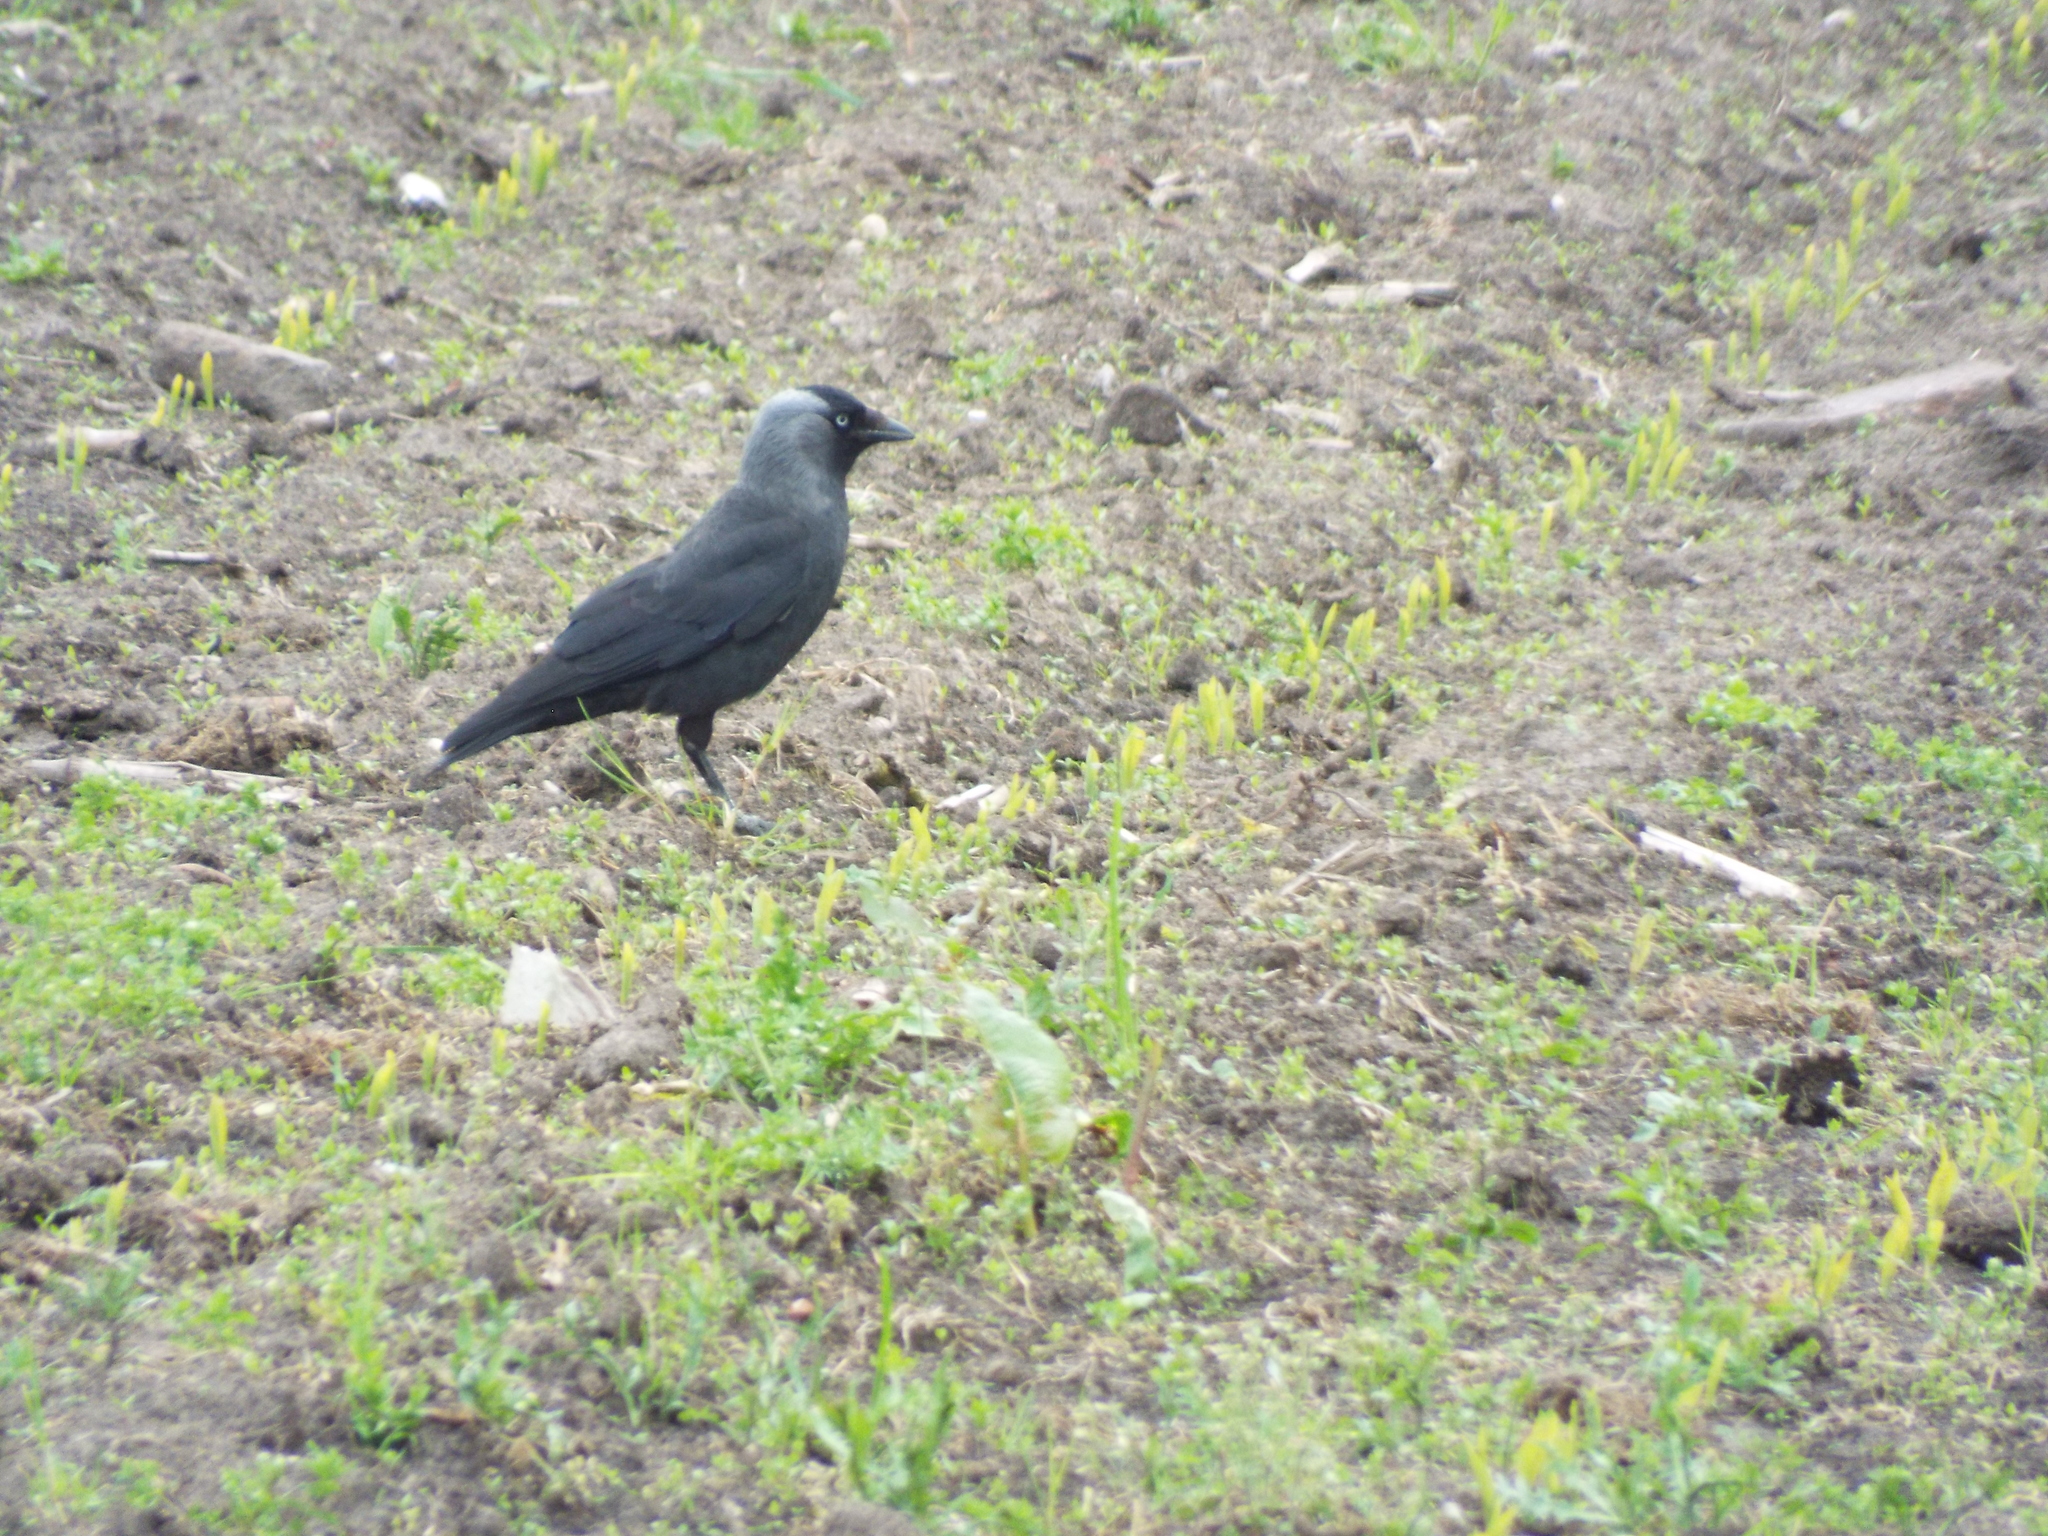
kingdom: Animalia
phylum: Chordata
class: Aves
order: Passeriformes
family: Corvidae
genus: Coloeus
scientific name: Coloeus monedula
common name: Western jackdaw
